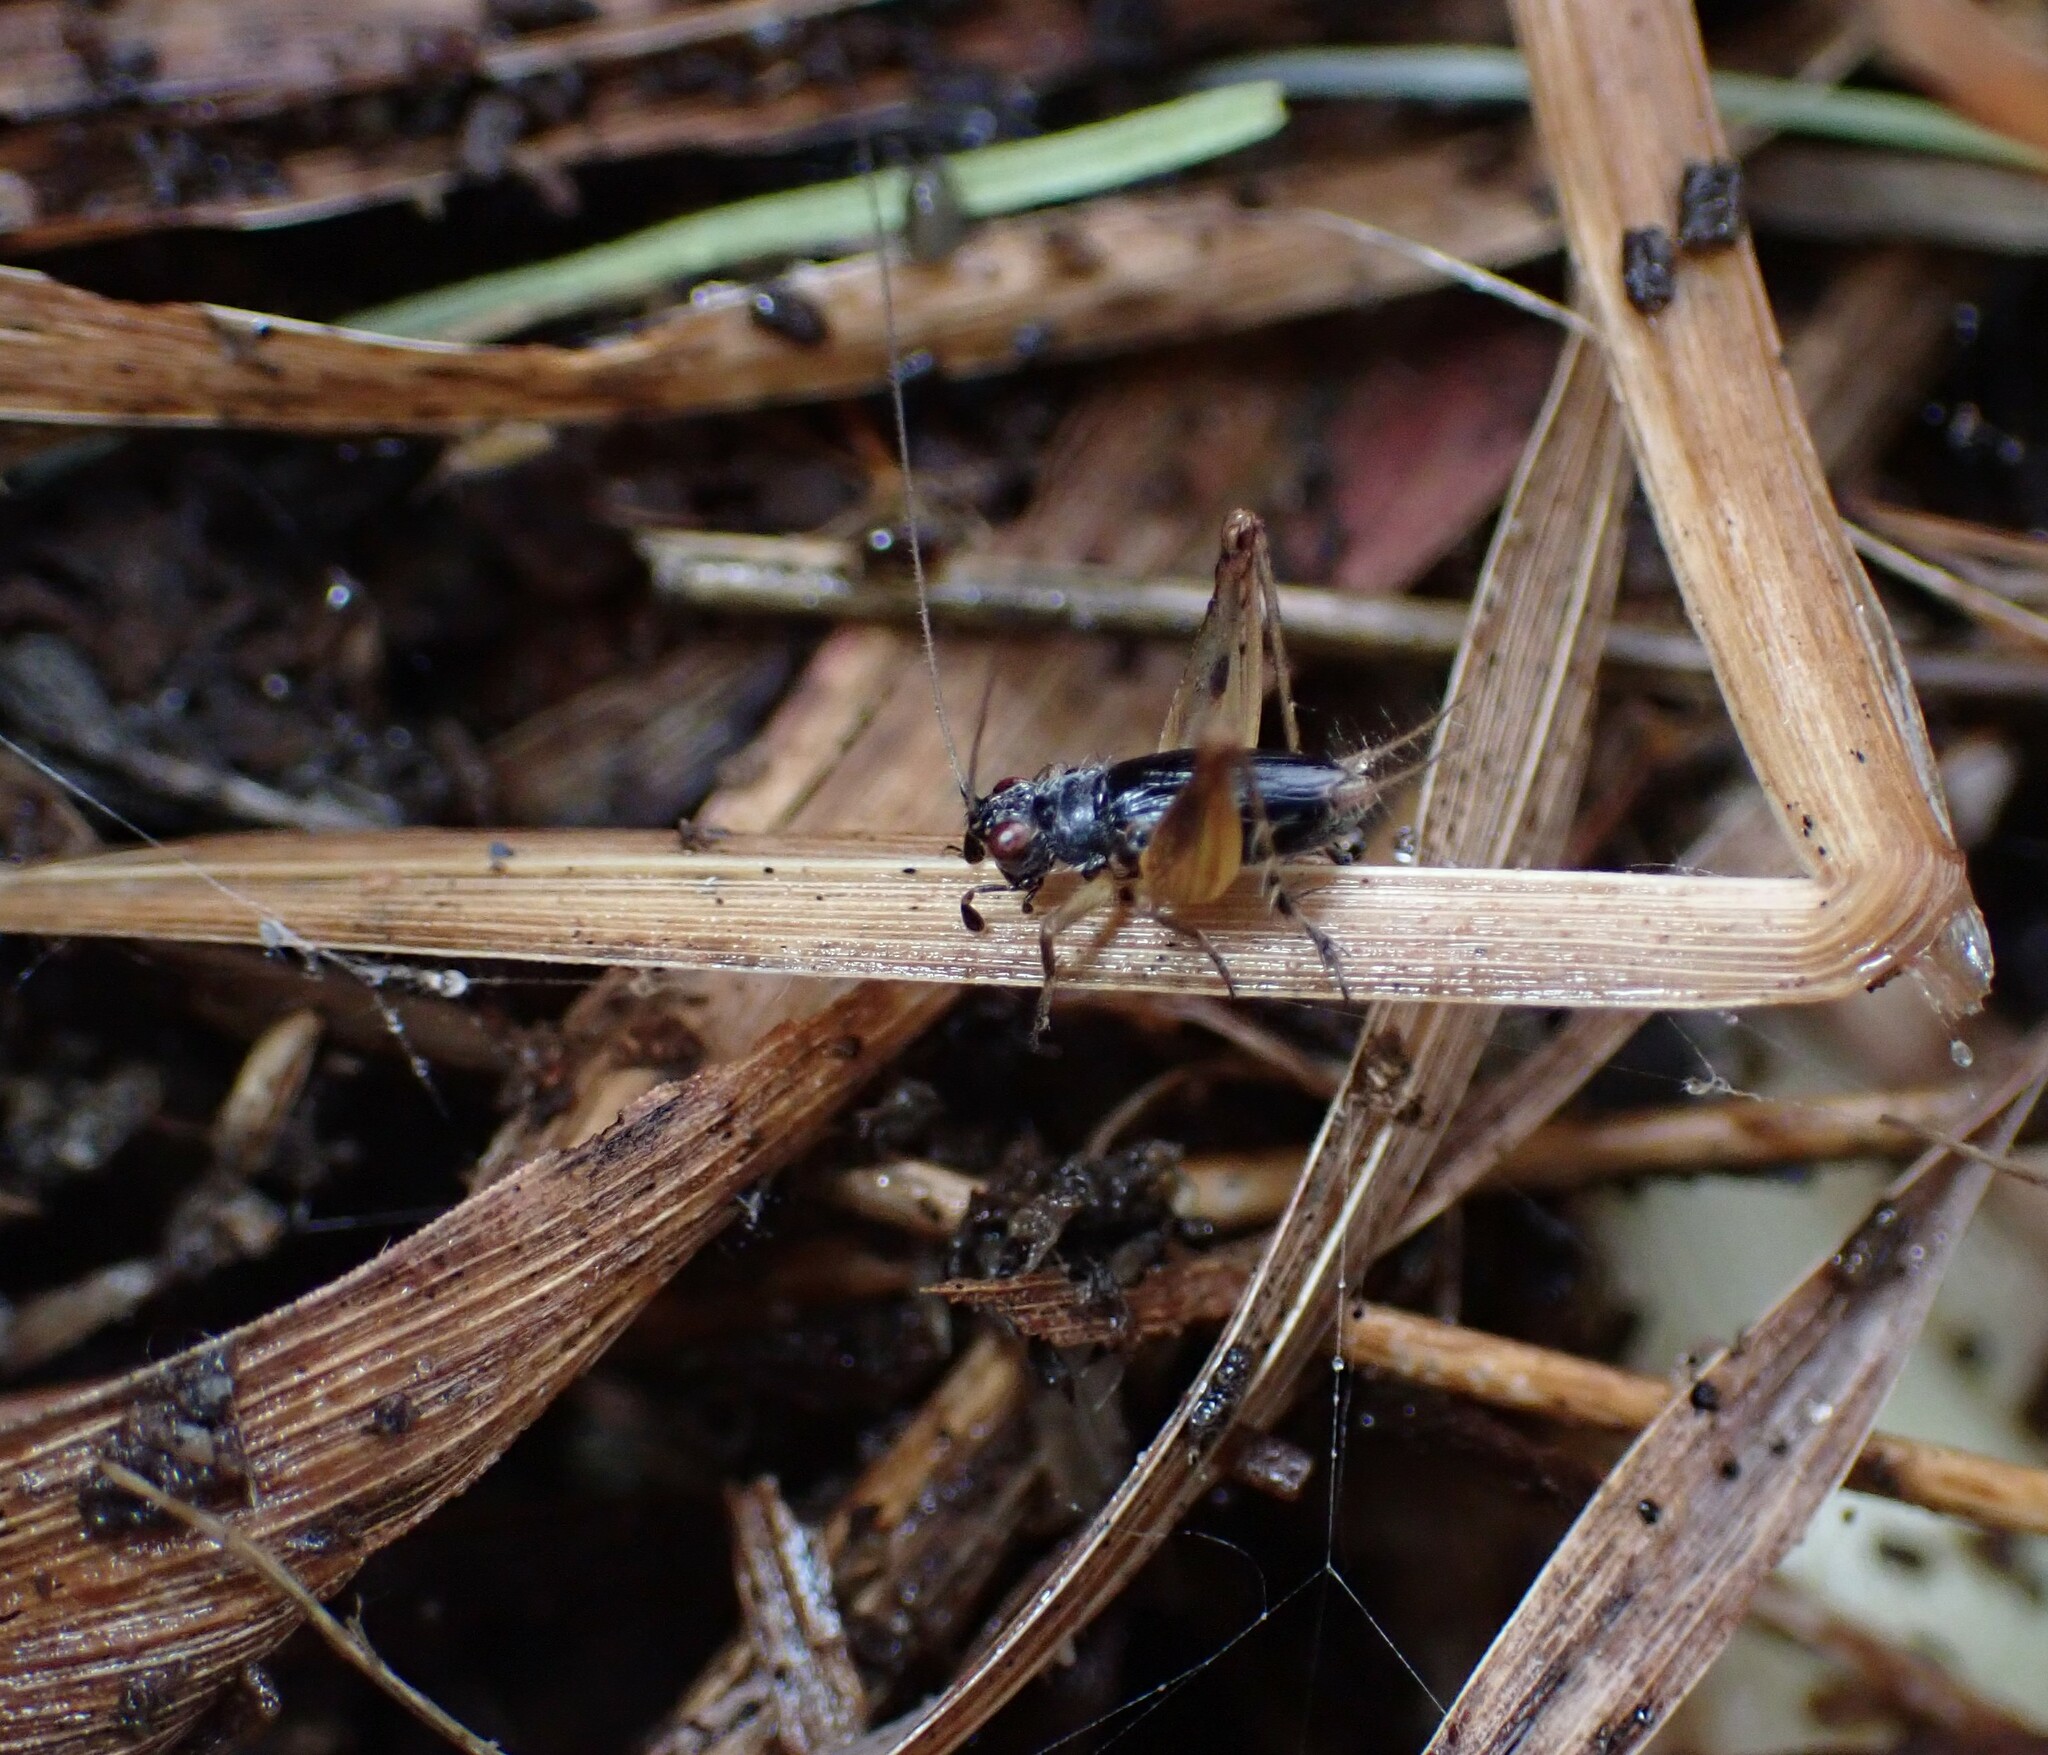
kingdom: Animalia
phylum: Arthropoda
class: Insecta
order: Orthoptera
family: Trigonidiidae
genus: Metioche
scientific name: Metioche maorica
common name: New zealand trig
